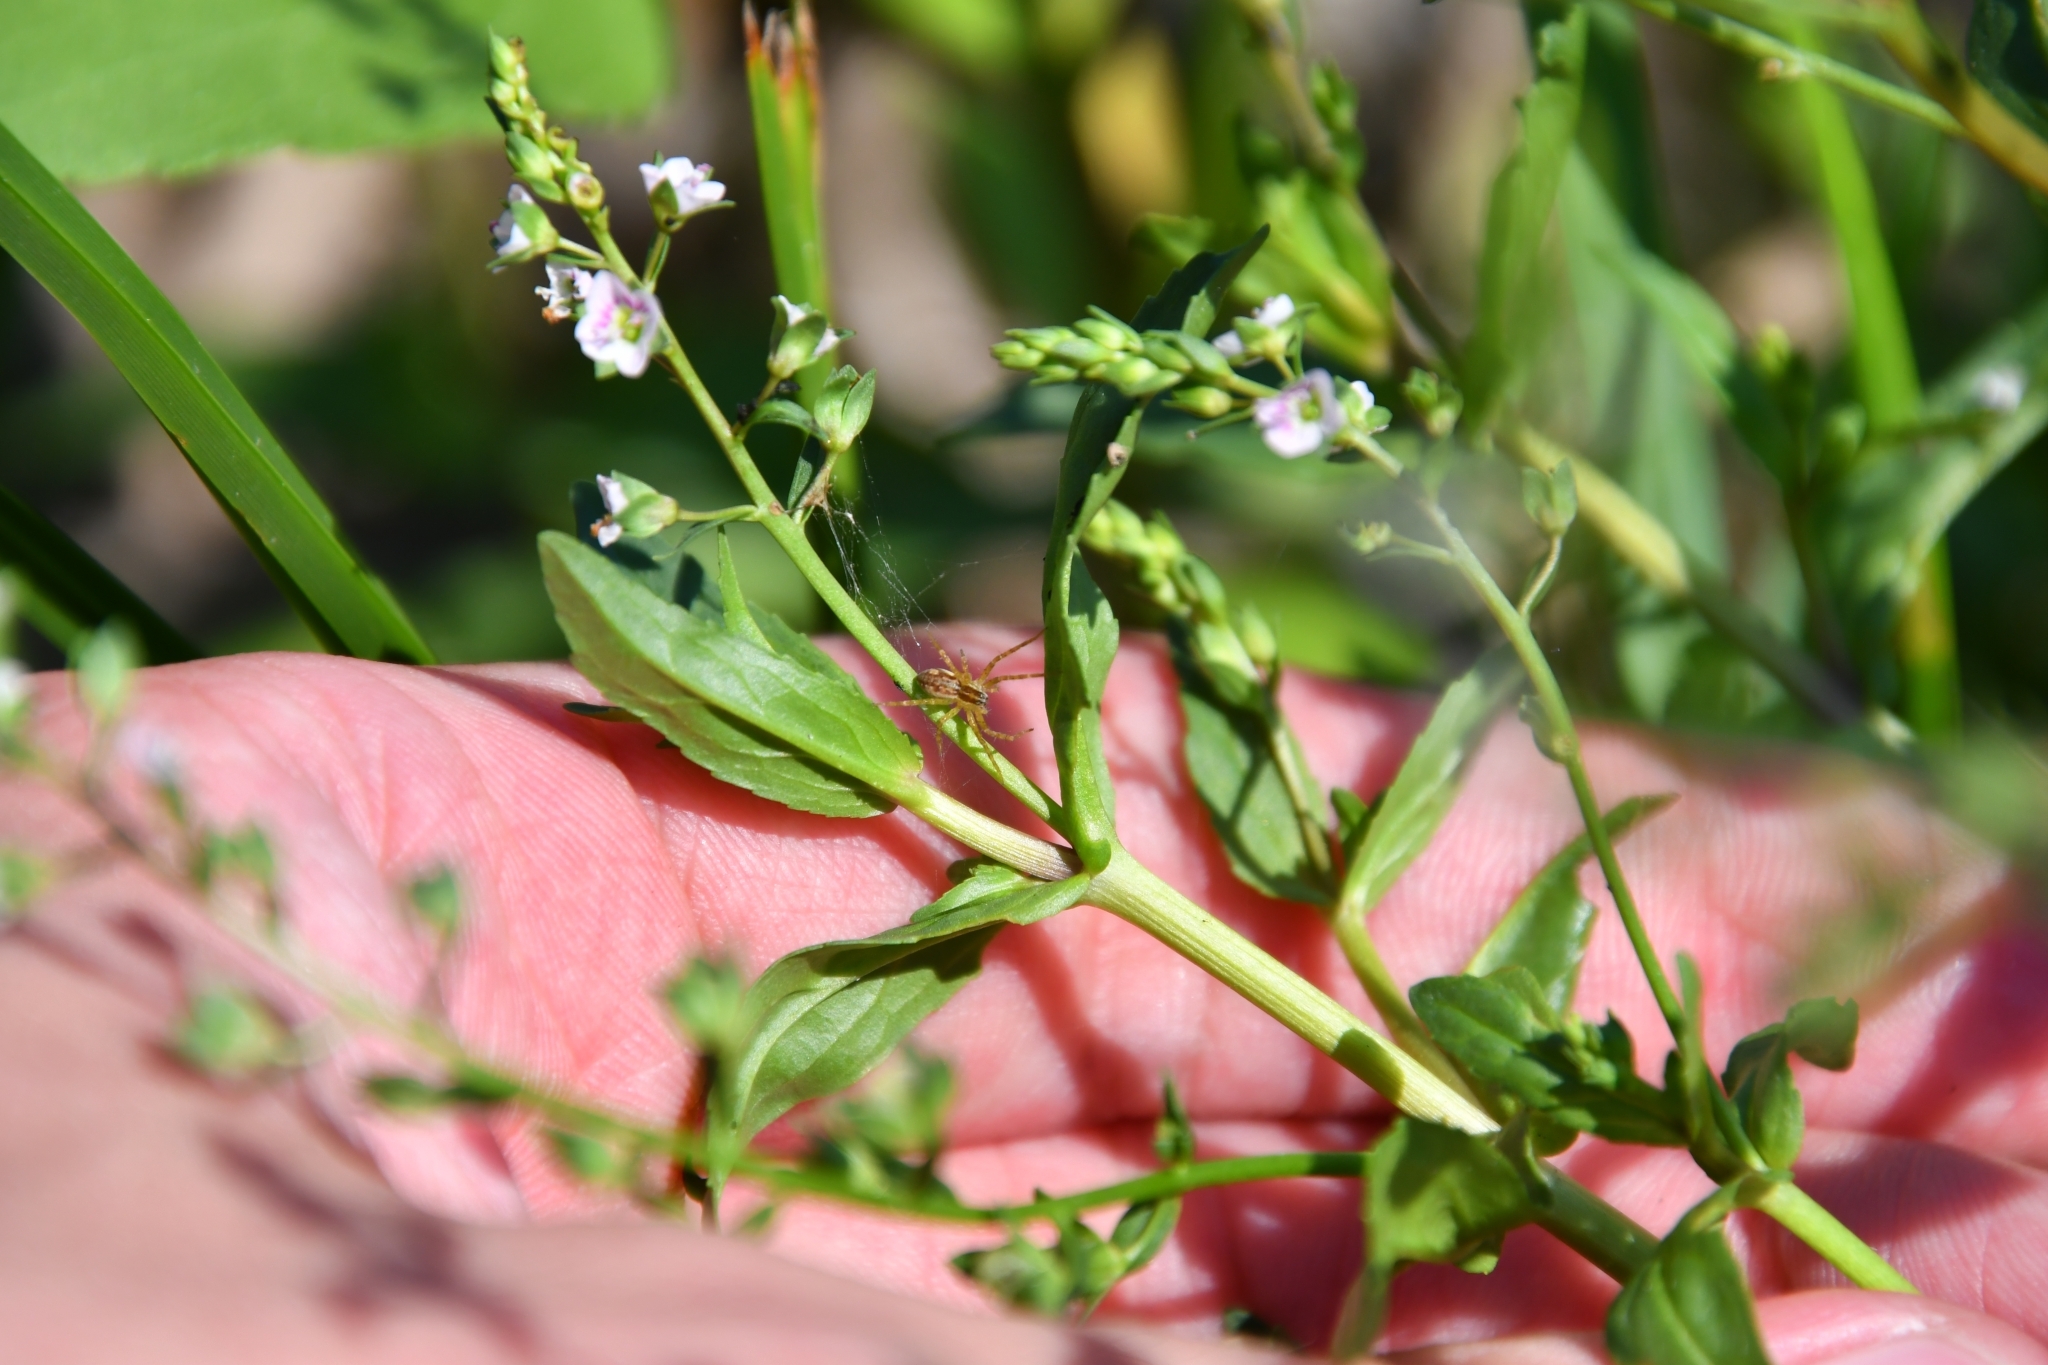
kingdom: Plantae
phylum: Tracheophyta
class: Magnoliopsida
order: Lamiales
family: Plantaginaceae
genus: Veronica
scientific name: Veronica anagallis-aquatica
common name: Water speedwell
